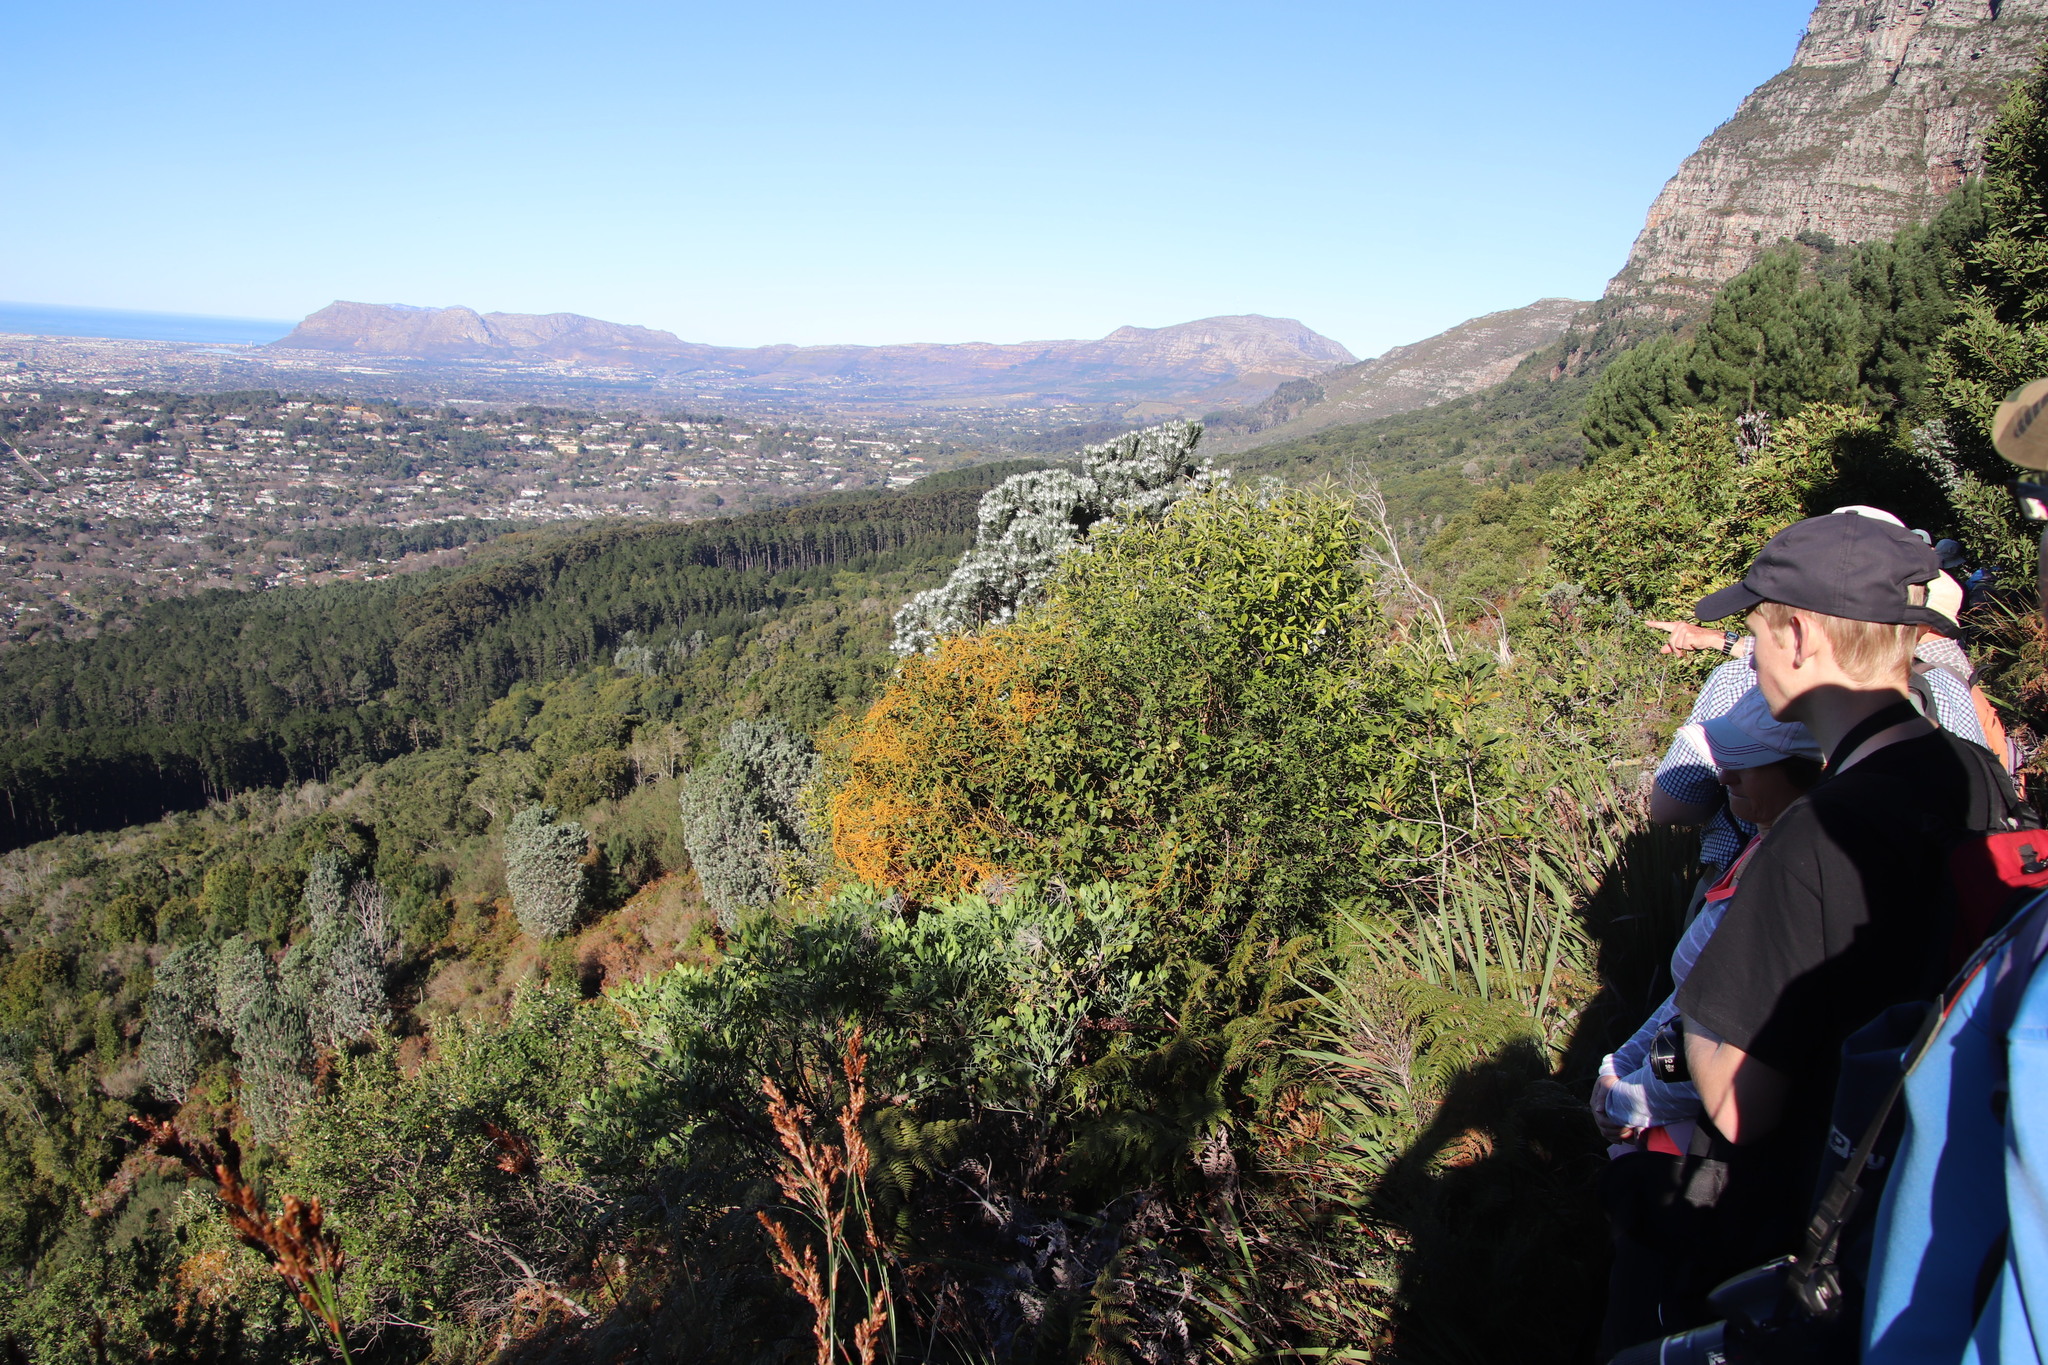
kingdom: Plantae
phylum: Tracheophyta
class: Magnoliopsida
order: Laurales
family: Lauraceae
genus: Cassytha
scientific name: Cassytha ciliolata
